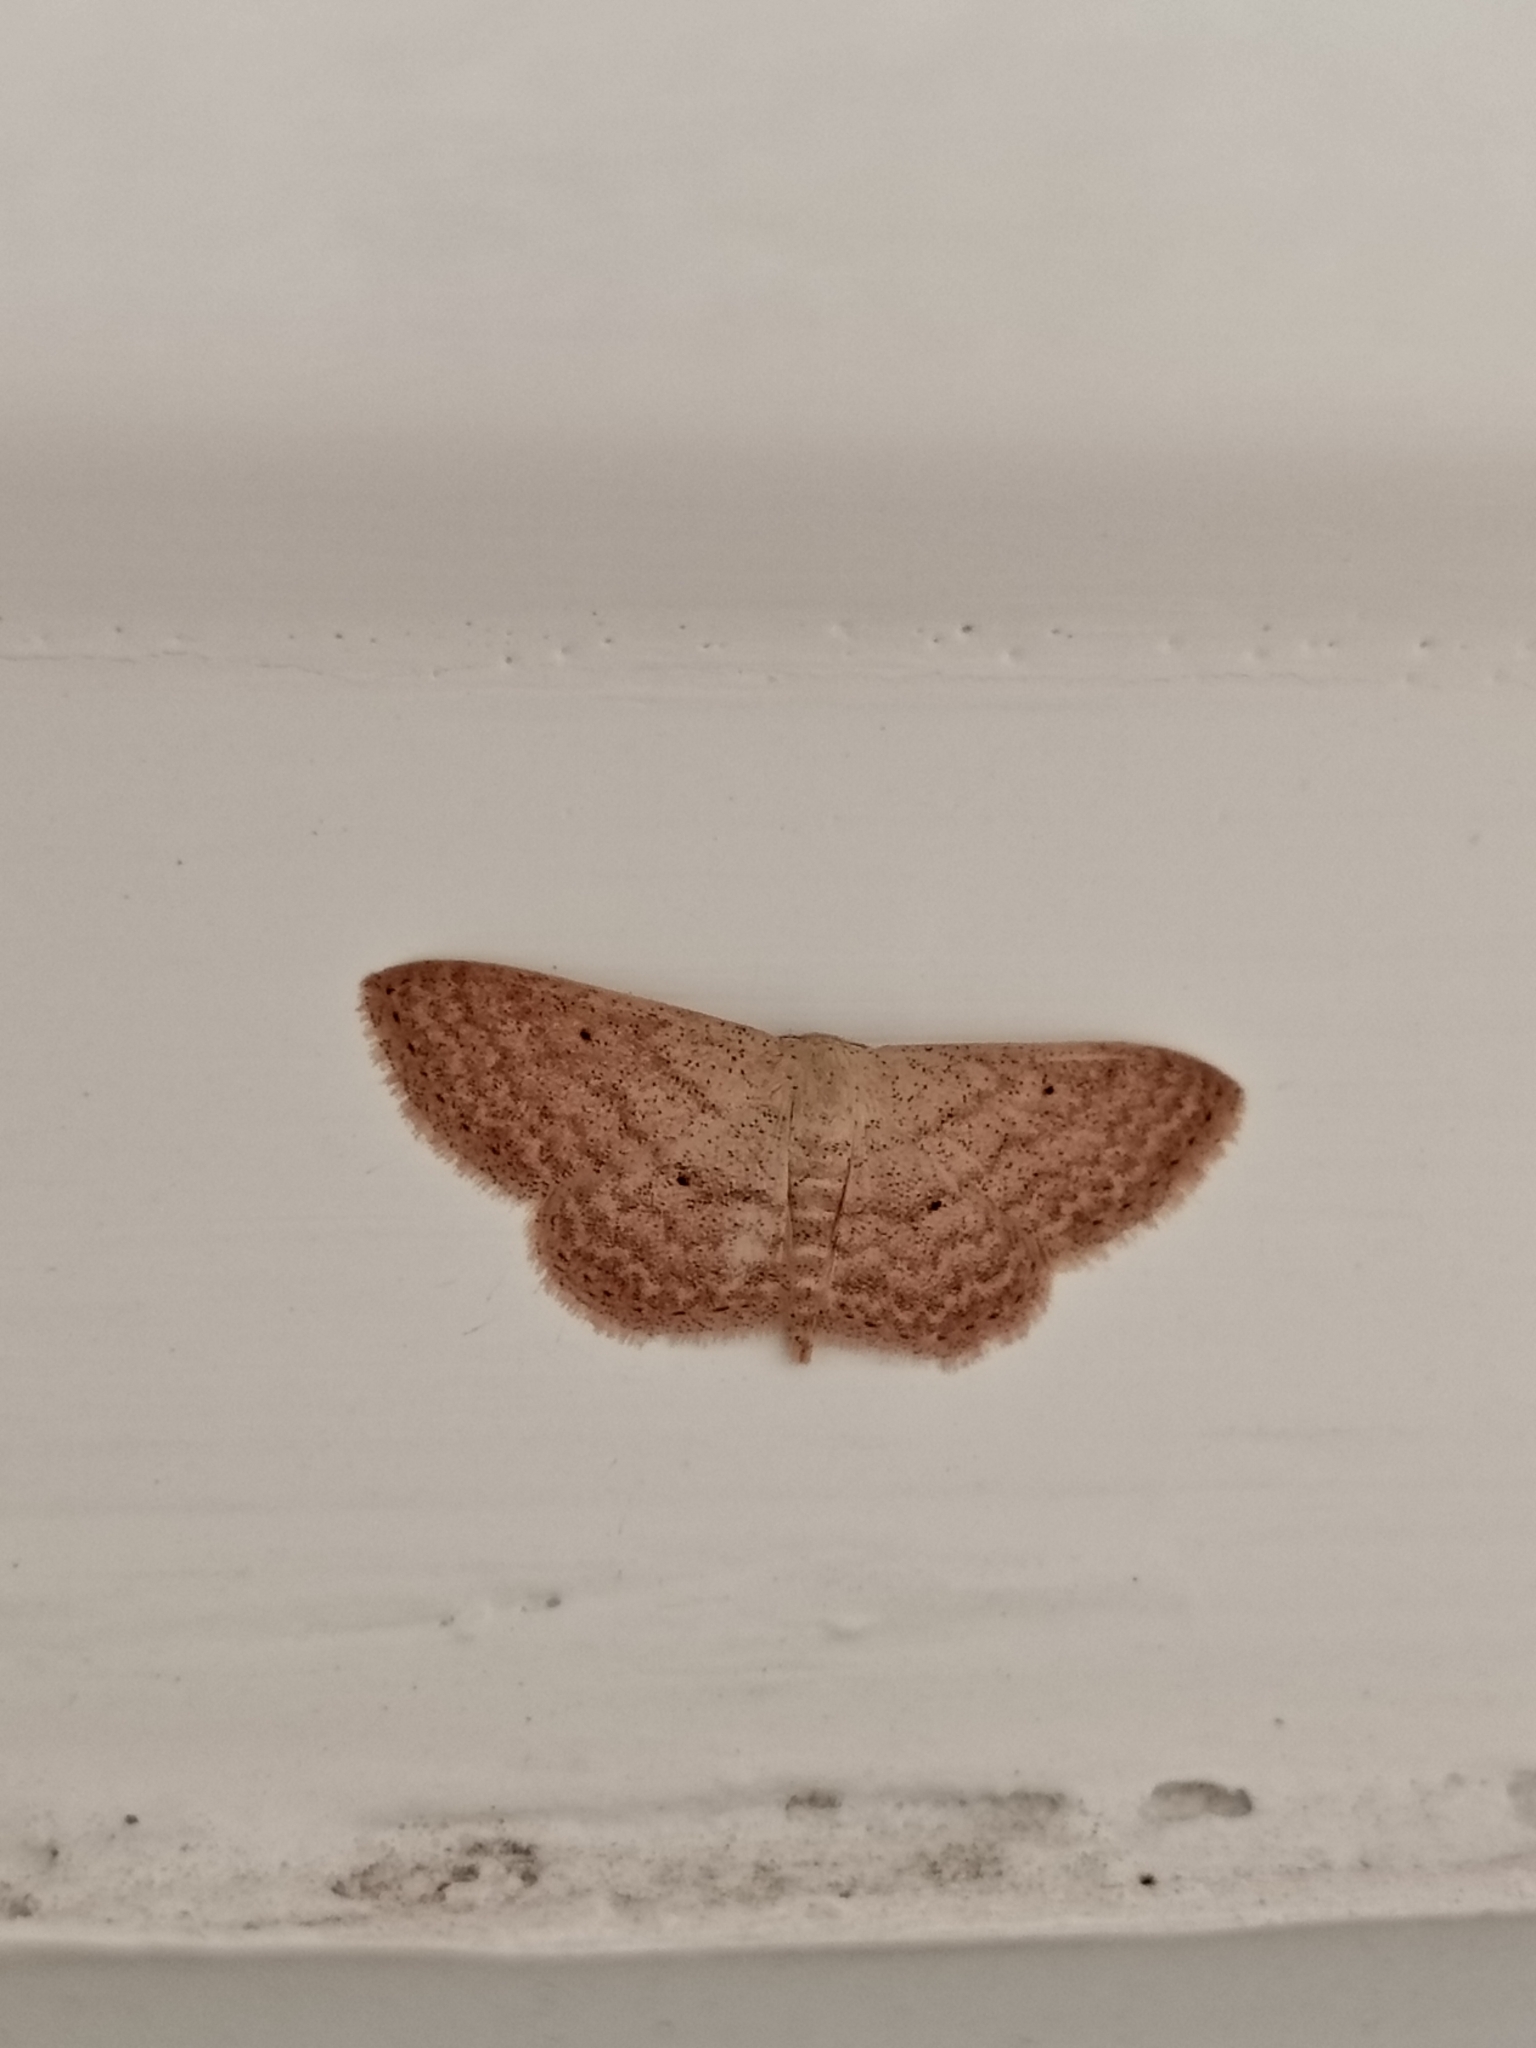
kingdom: Animalia
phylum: Arthropoda
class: Insecta
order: Lepidoptera
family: Geometridae
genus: Scopula
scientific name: Scopula minorata
